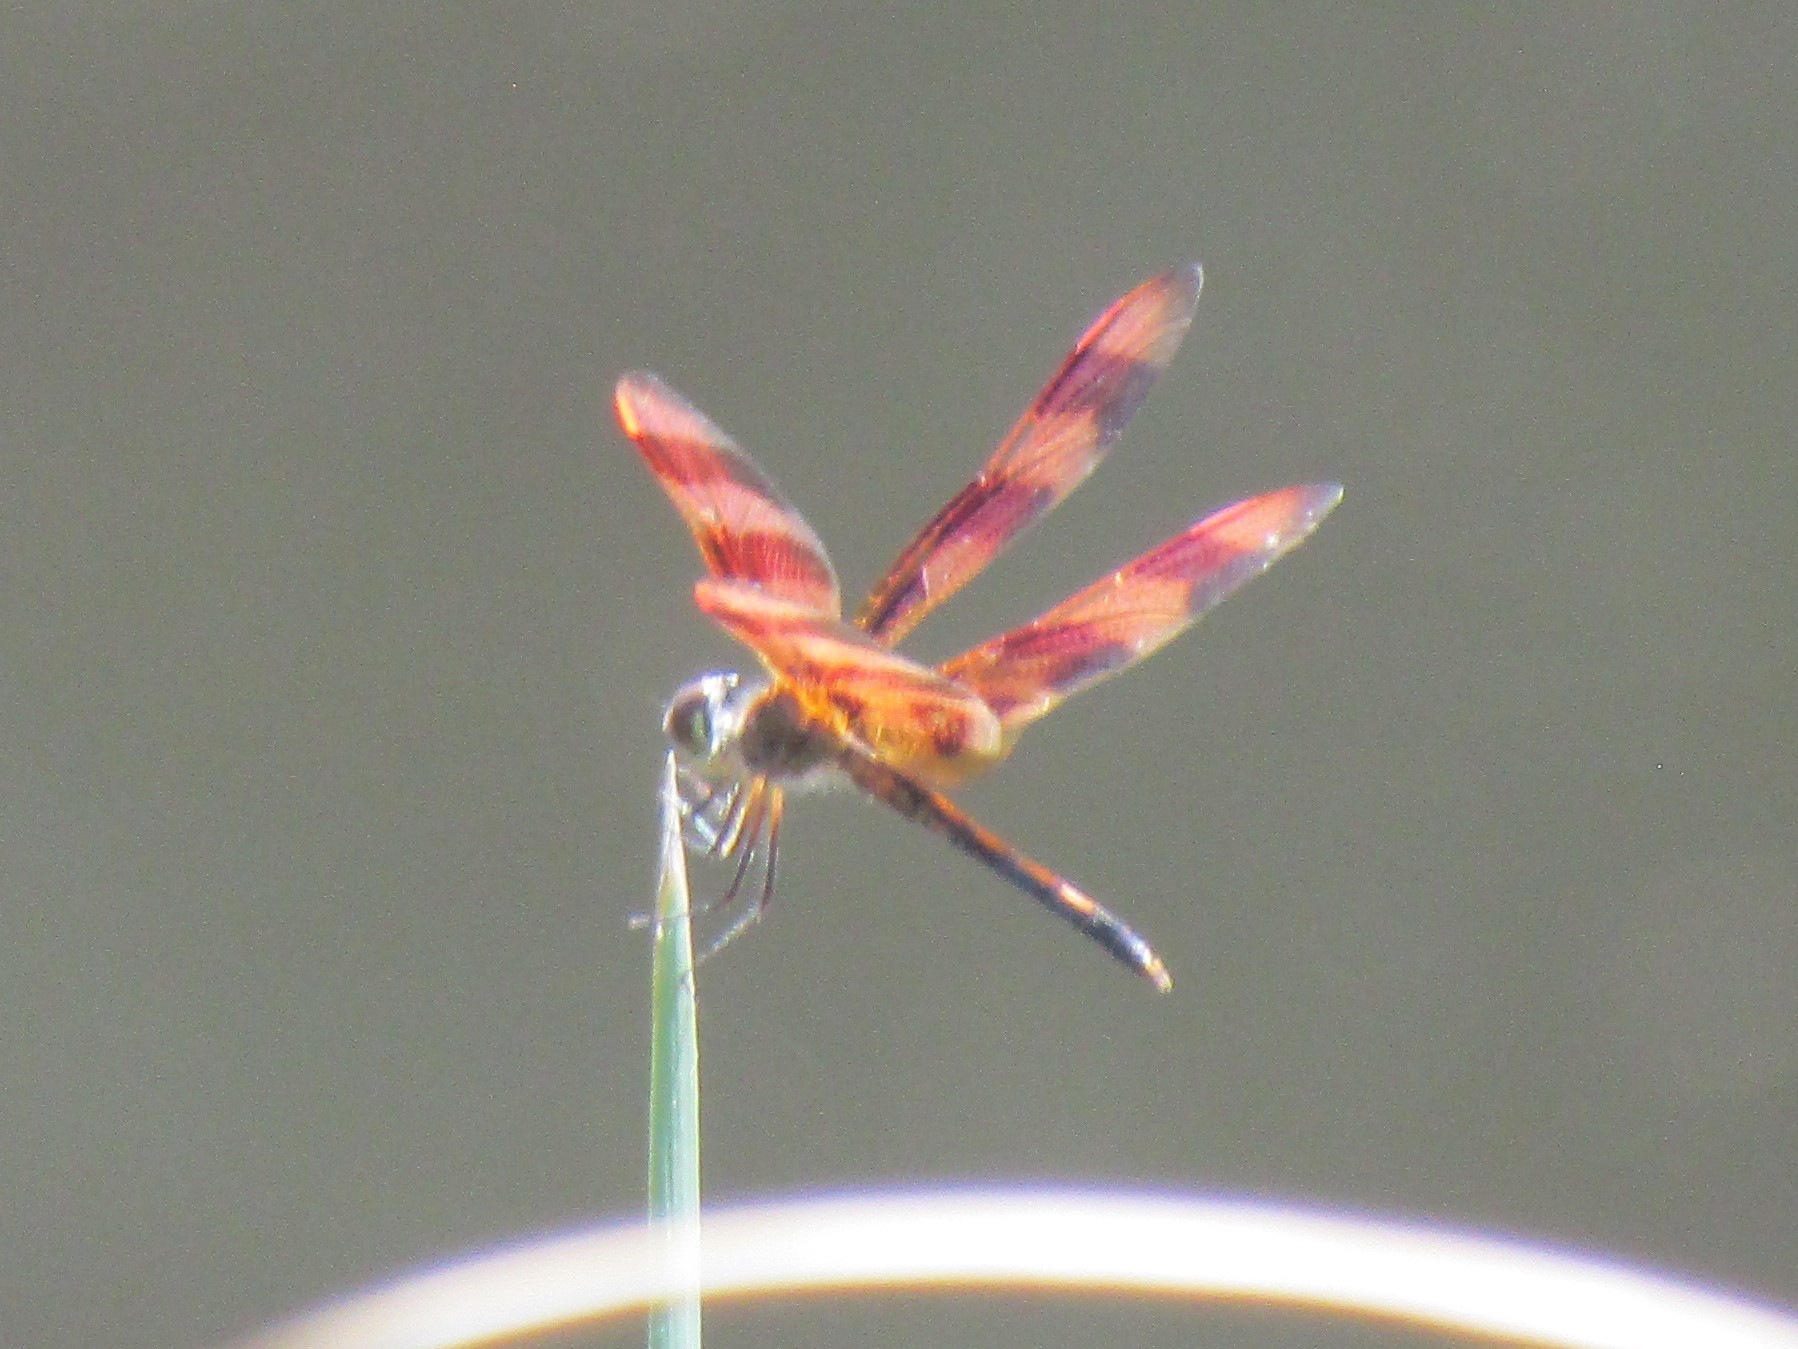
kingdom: Animalia
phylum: Arthropoda
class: Insecta
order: Odonata
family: Libellulidae
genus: Celithemis
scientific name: Celithemis eponina
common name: Halloween pennant
